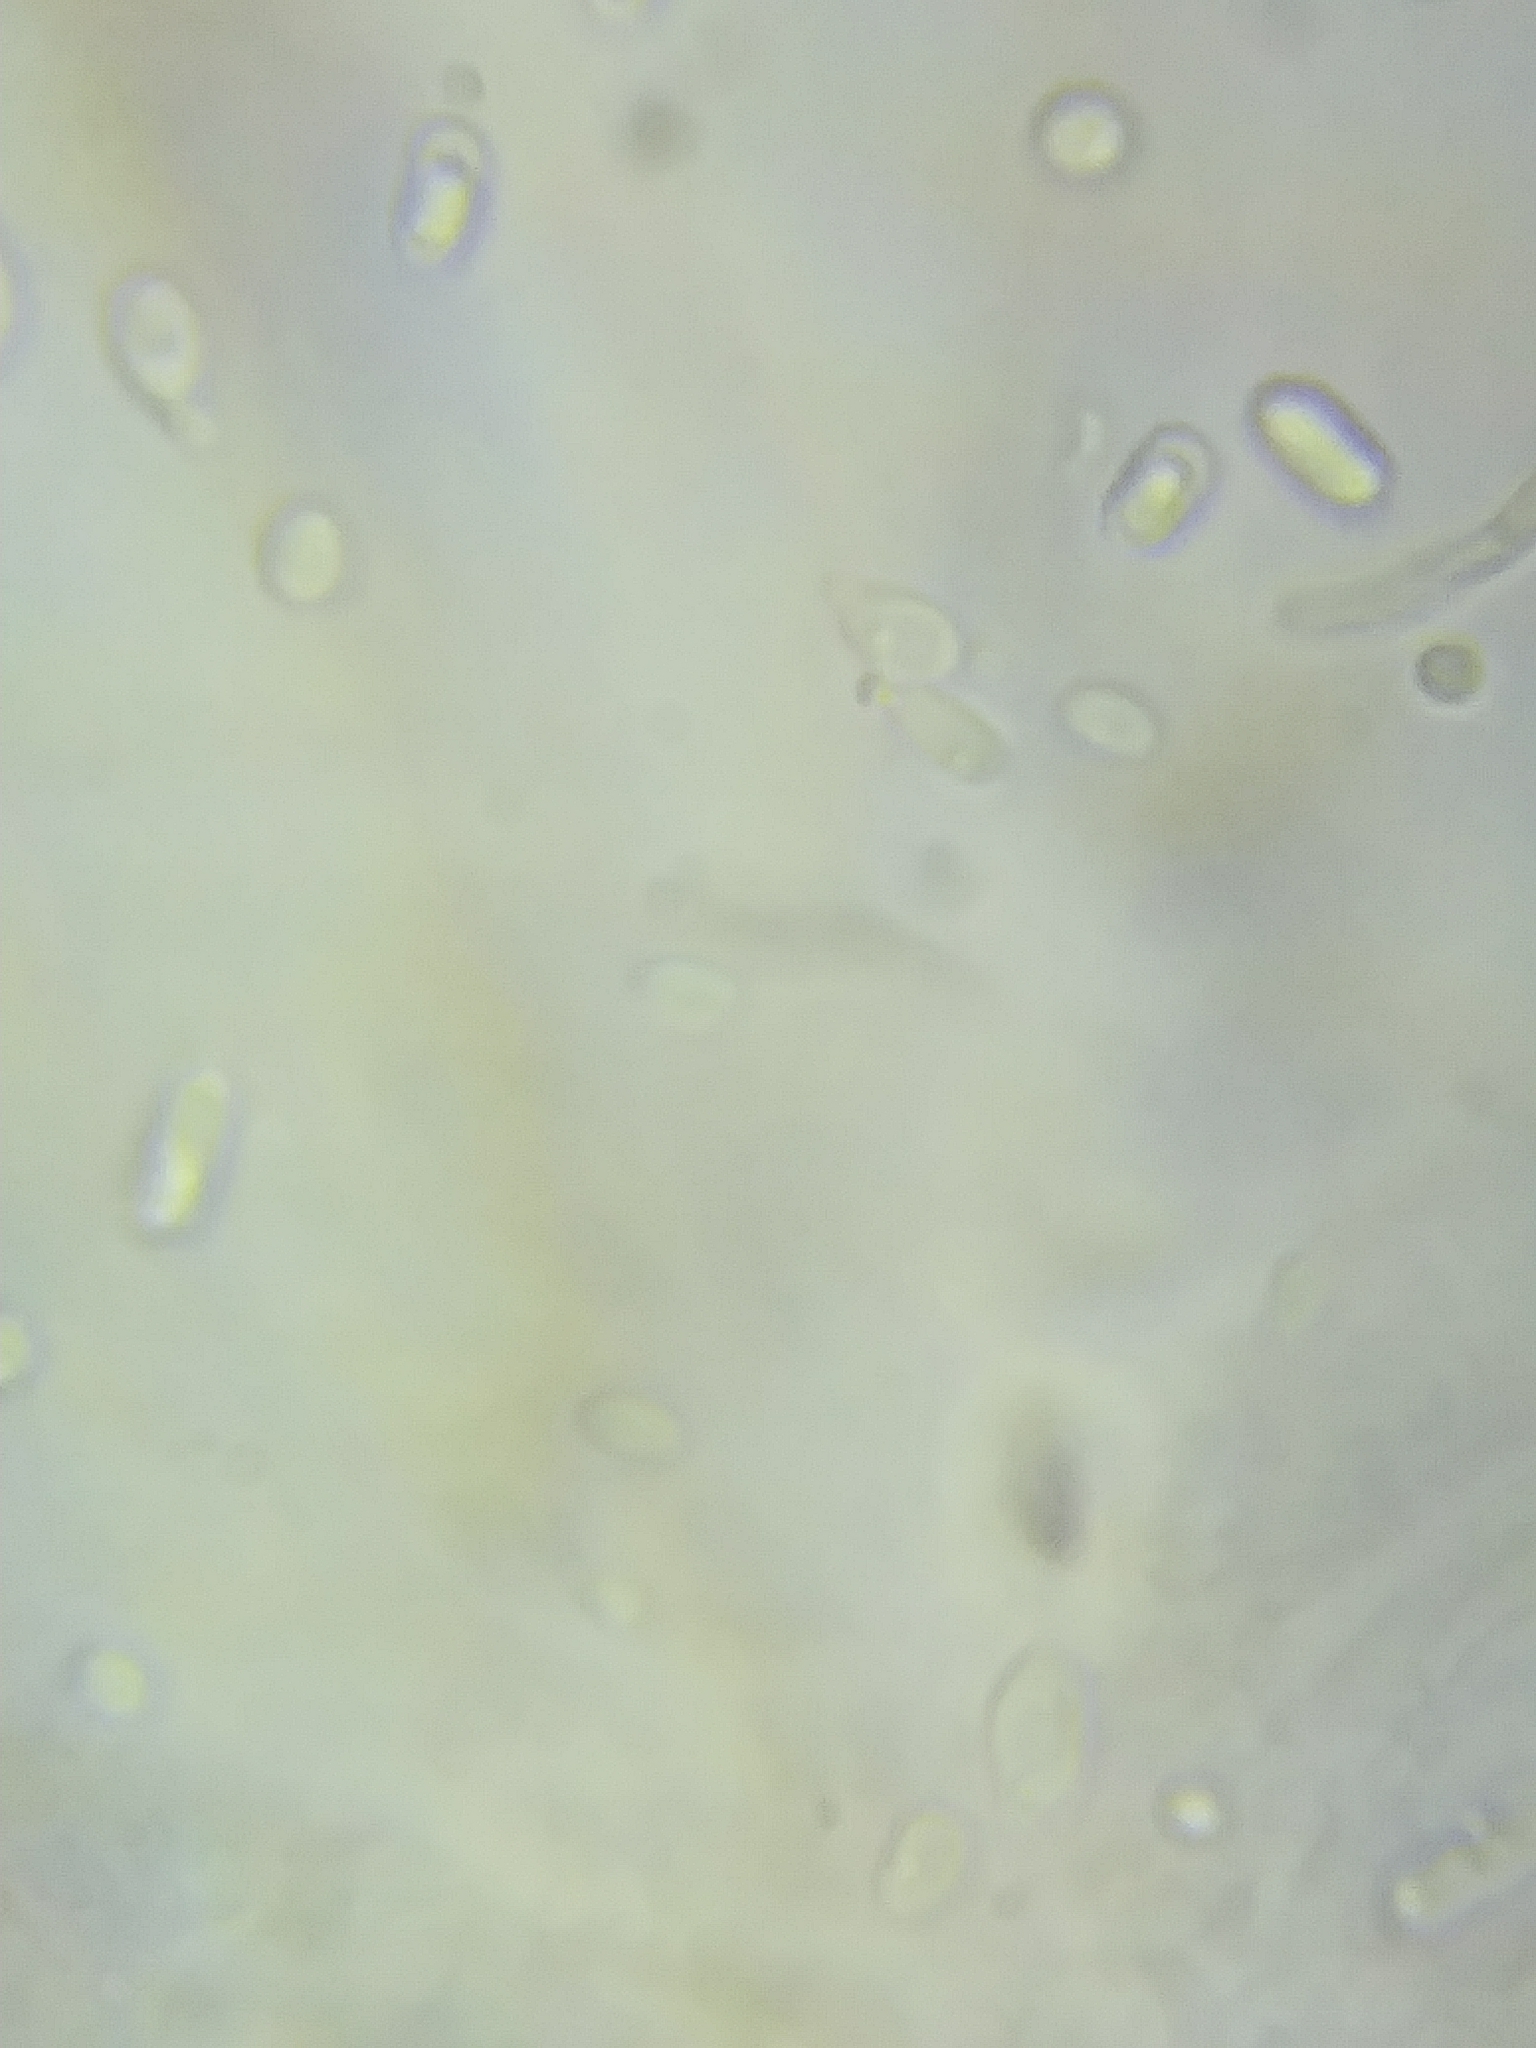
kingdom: Fungi
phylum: Basidiomycota
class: Agaricomycetes
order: Polyporales
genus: Fuscopostia
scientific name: Fuscopostia fragilis
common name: Brown-staining cheese polypore
